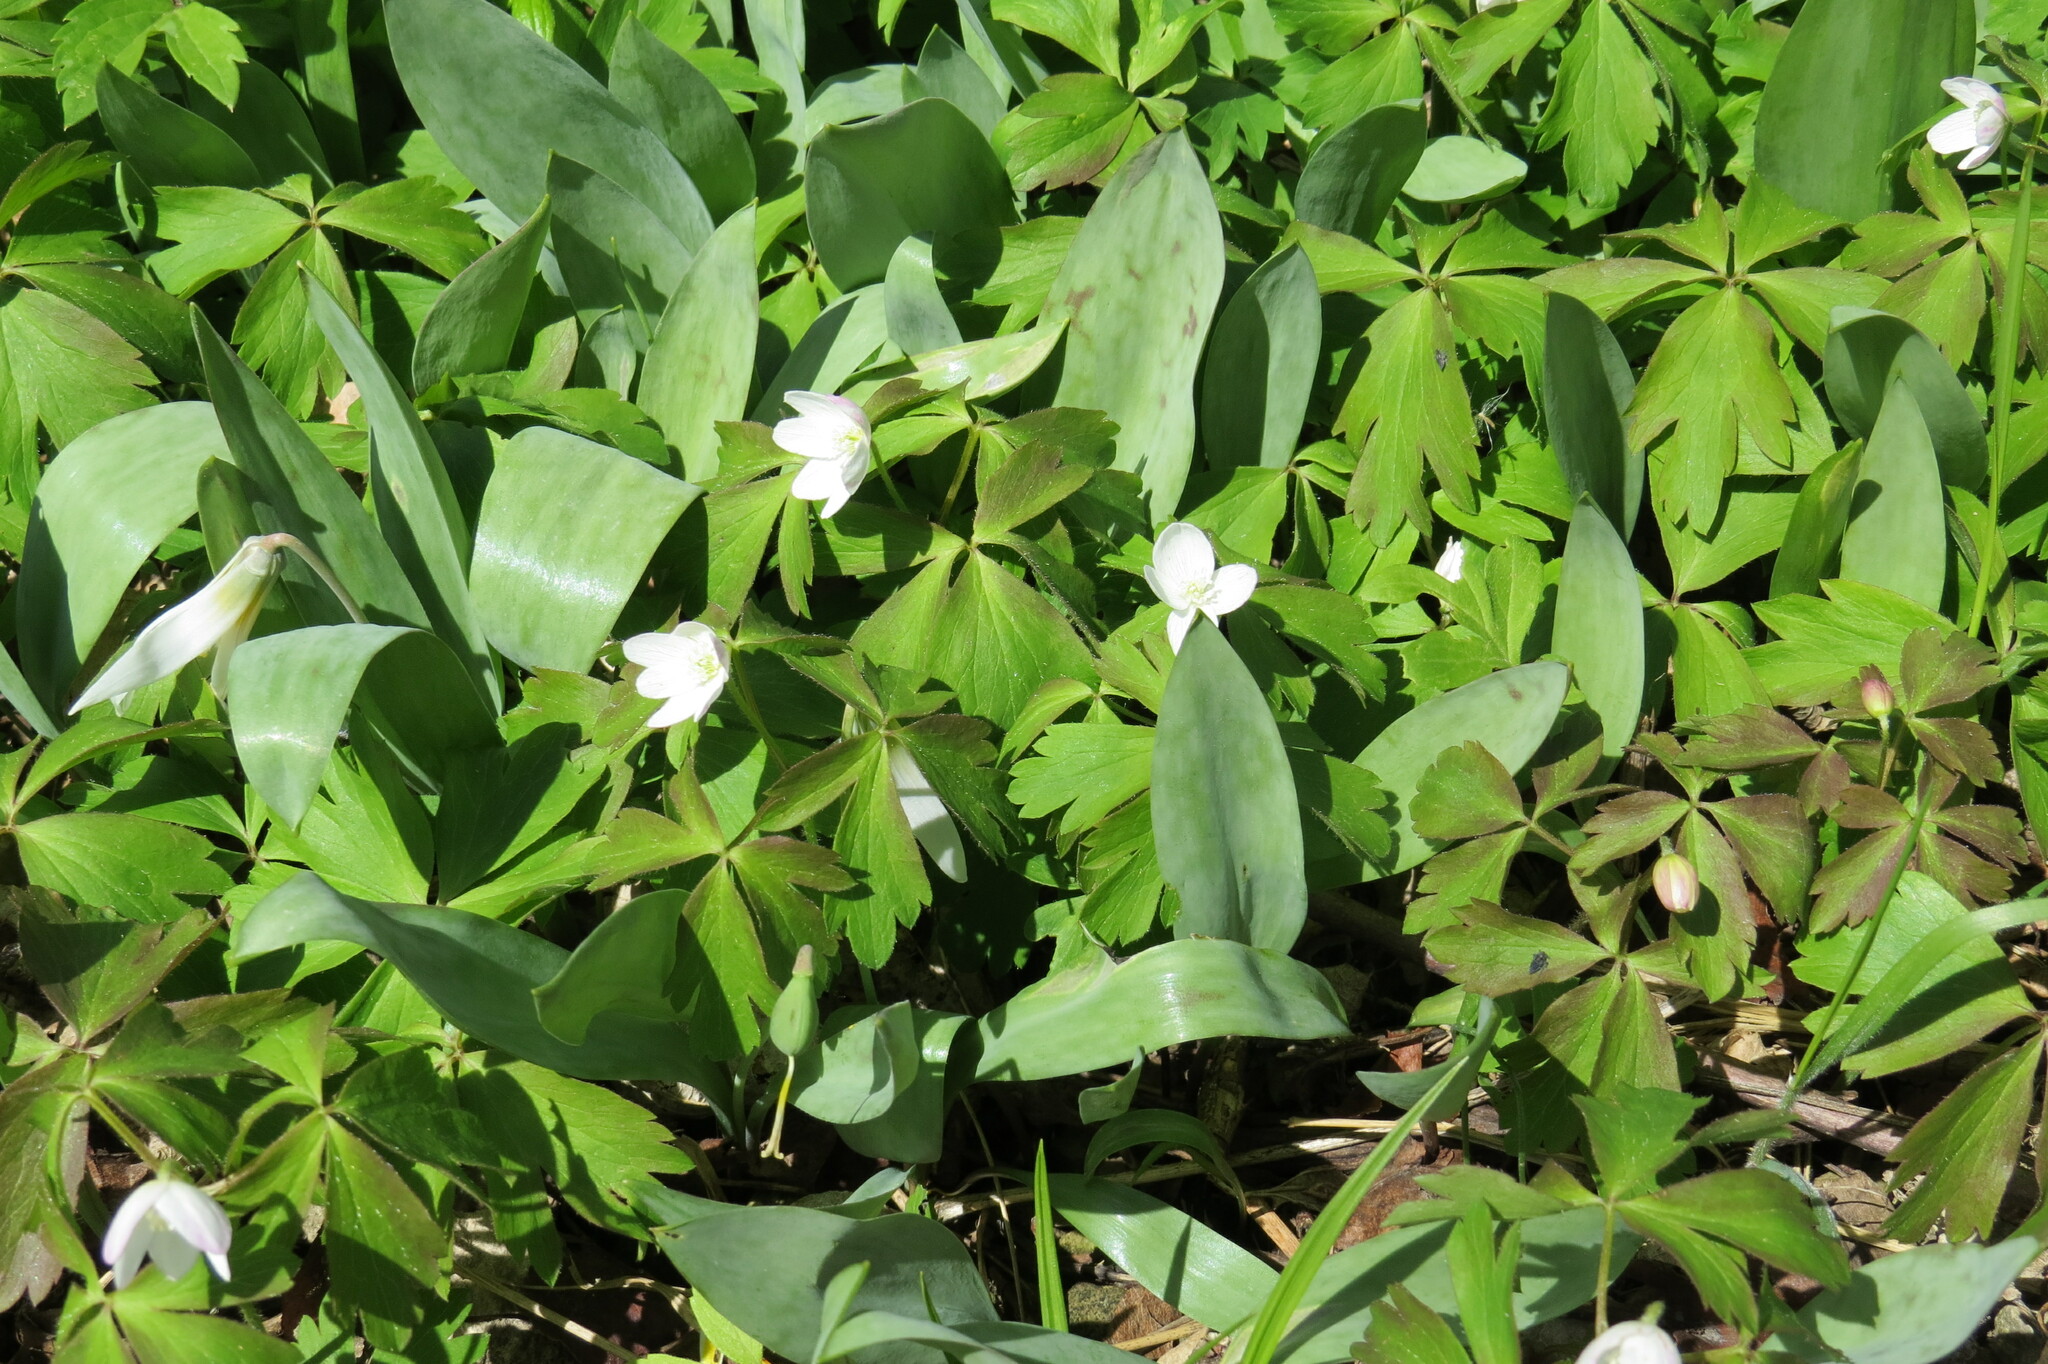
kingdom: Plantae
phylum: Tracheophyta
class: Magnoliopsida
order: Ranunculales
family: Ranunculaceae
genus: Anemone
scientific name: Anemone quinquefolia
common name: Wood anemone
